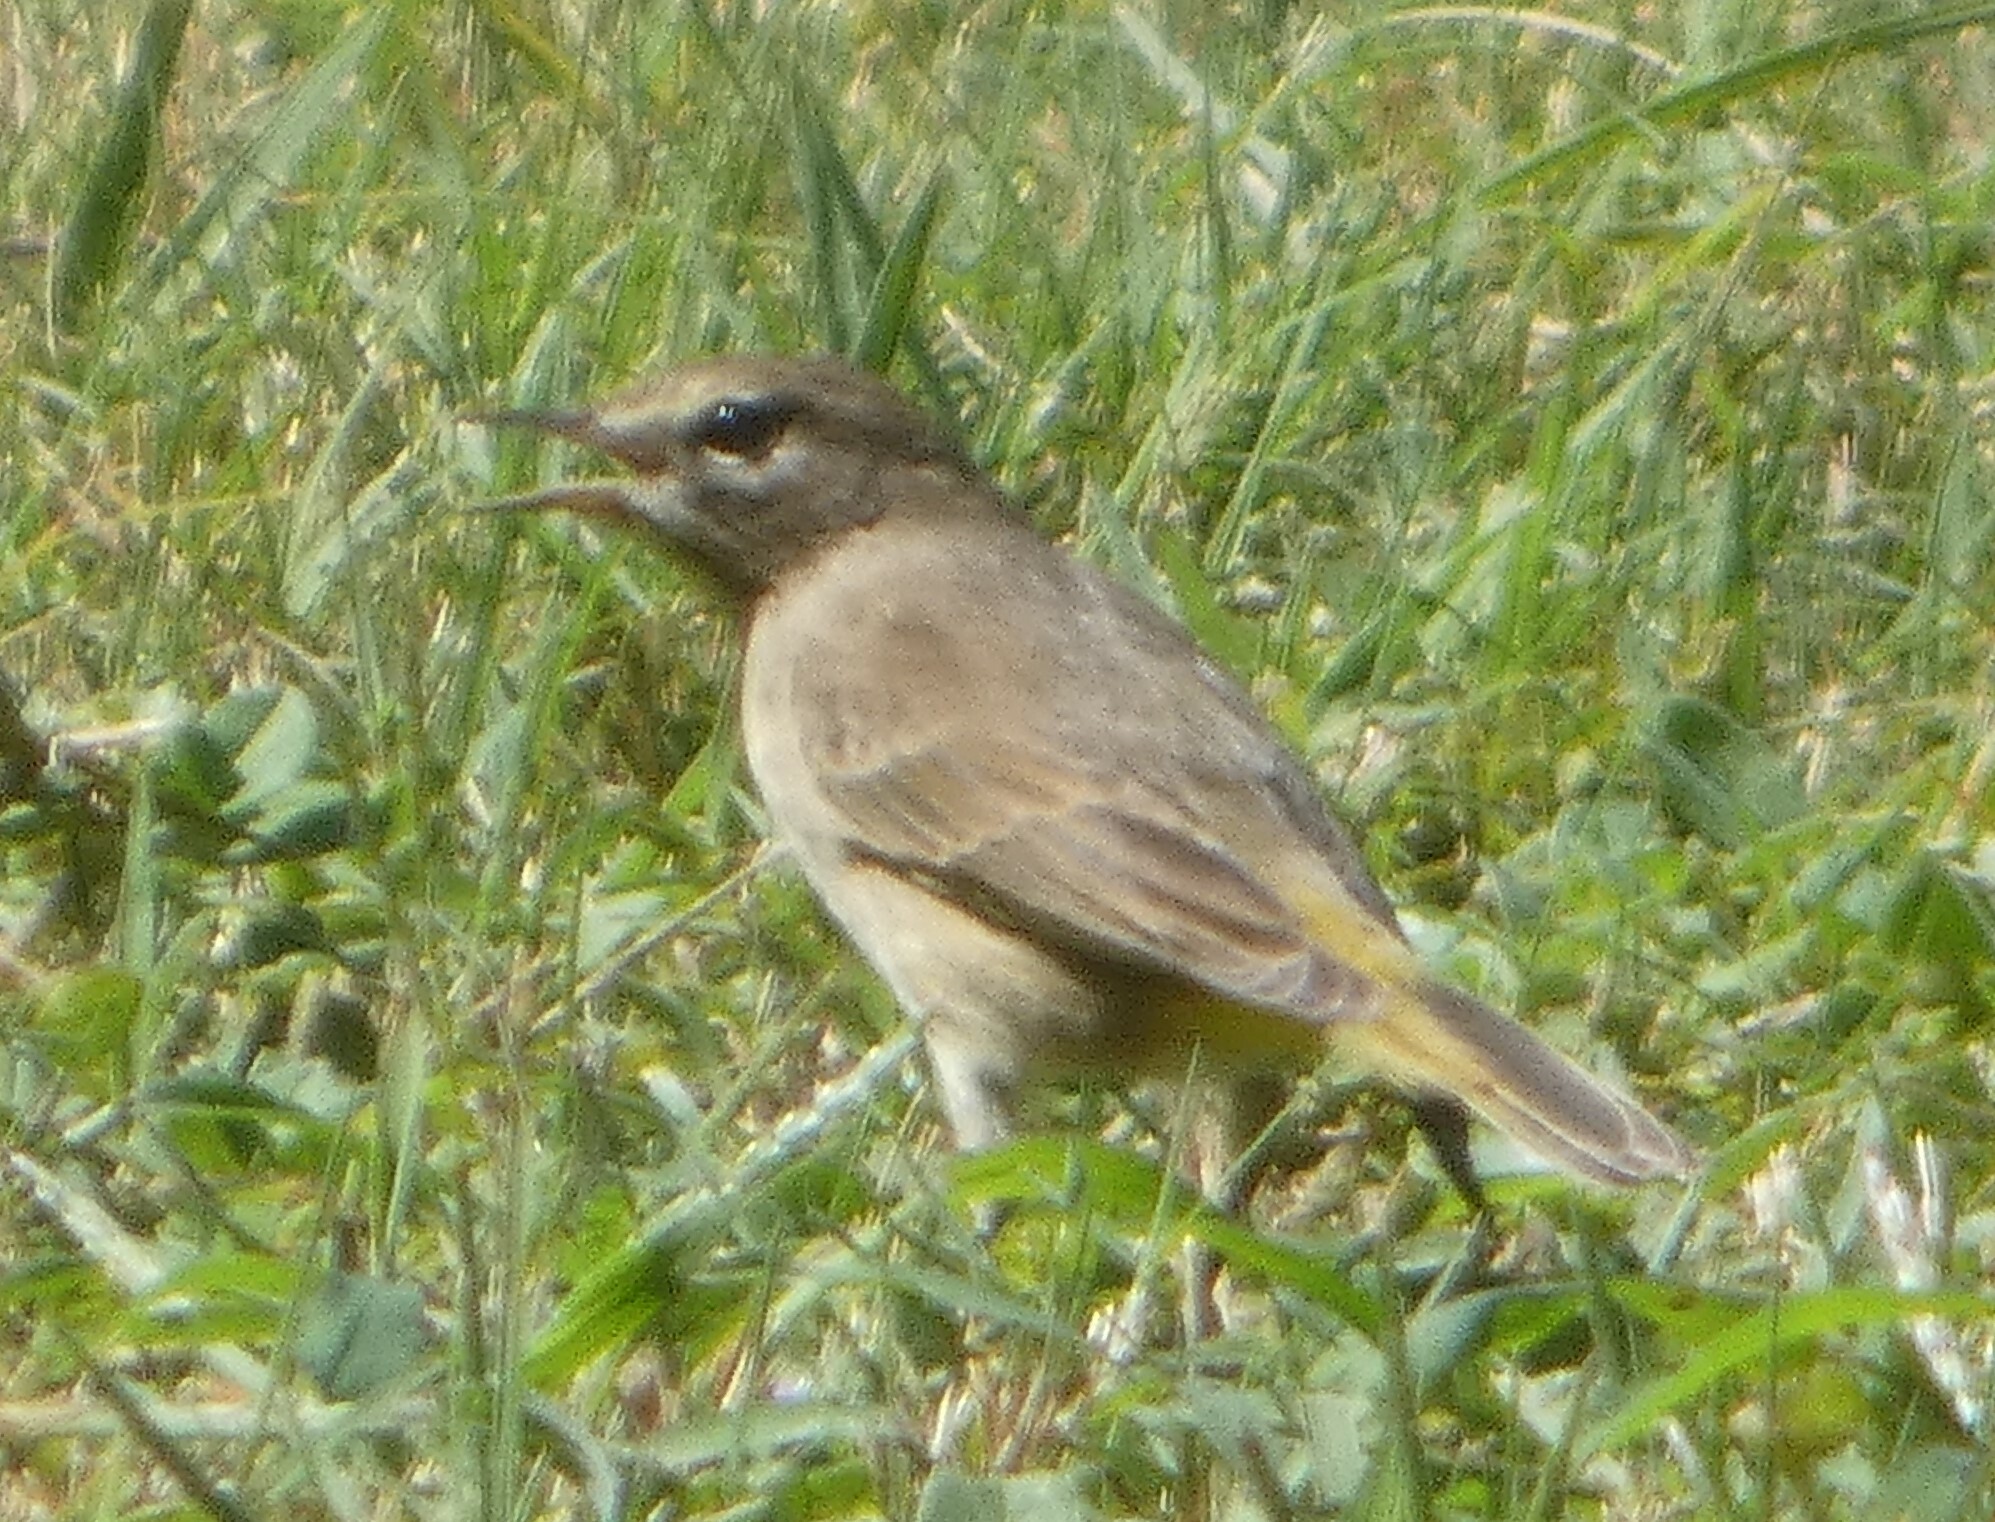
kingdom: Animalia
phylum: Chordata
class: Aves
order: Passeriformes
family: Parulidae
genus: Setophaga
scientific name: Setophaga palmarum
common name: Palm warbler
